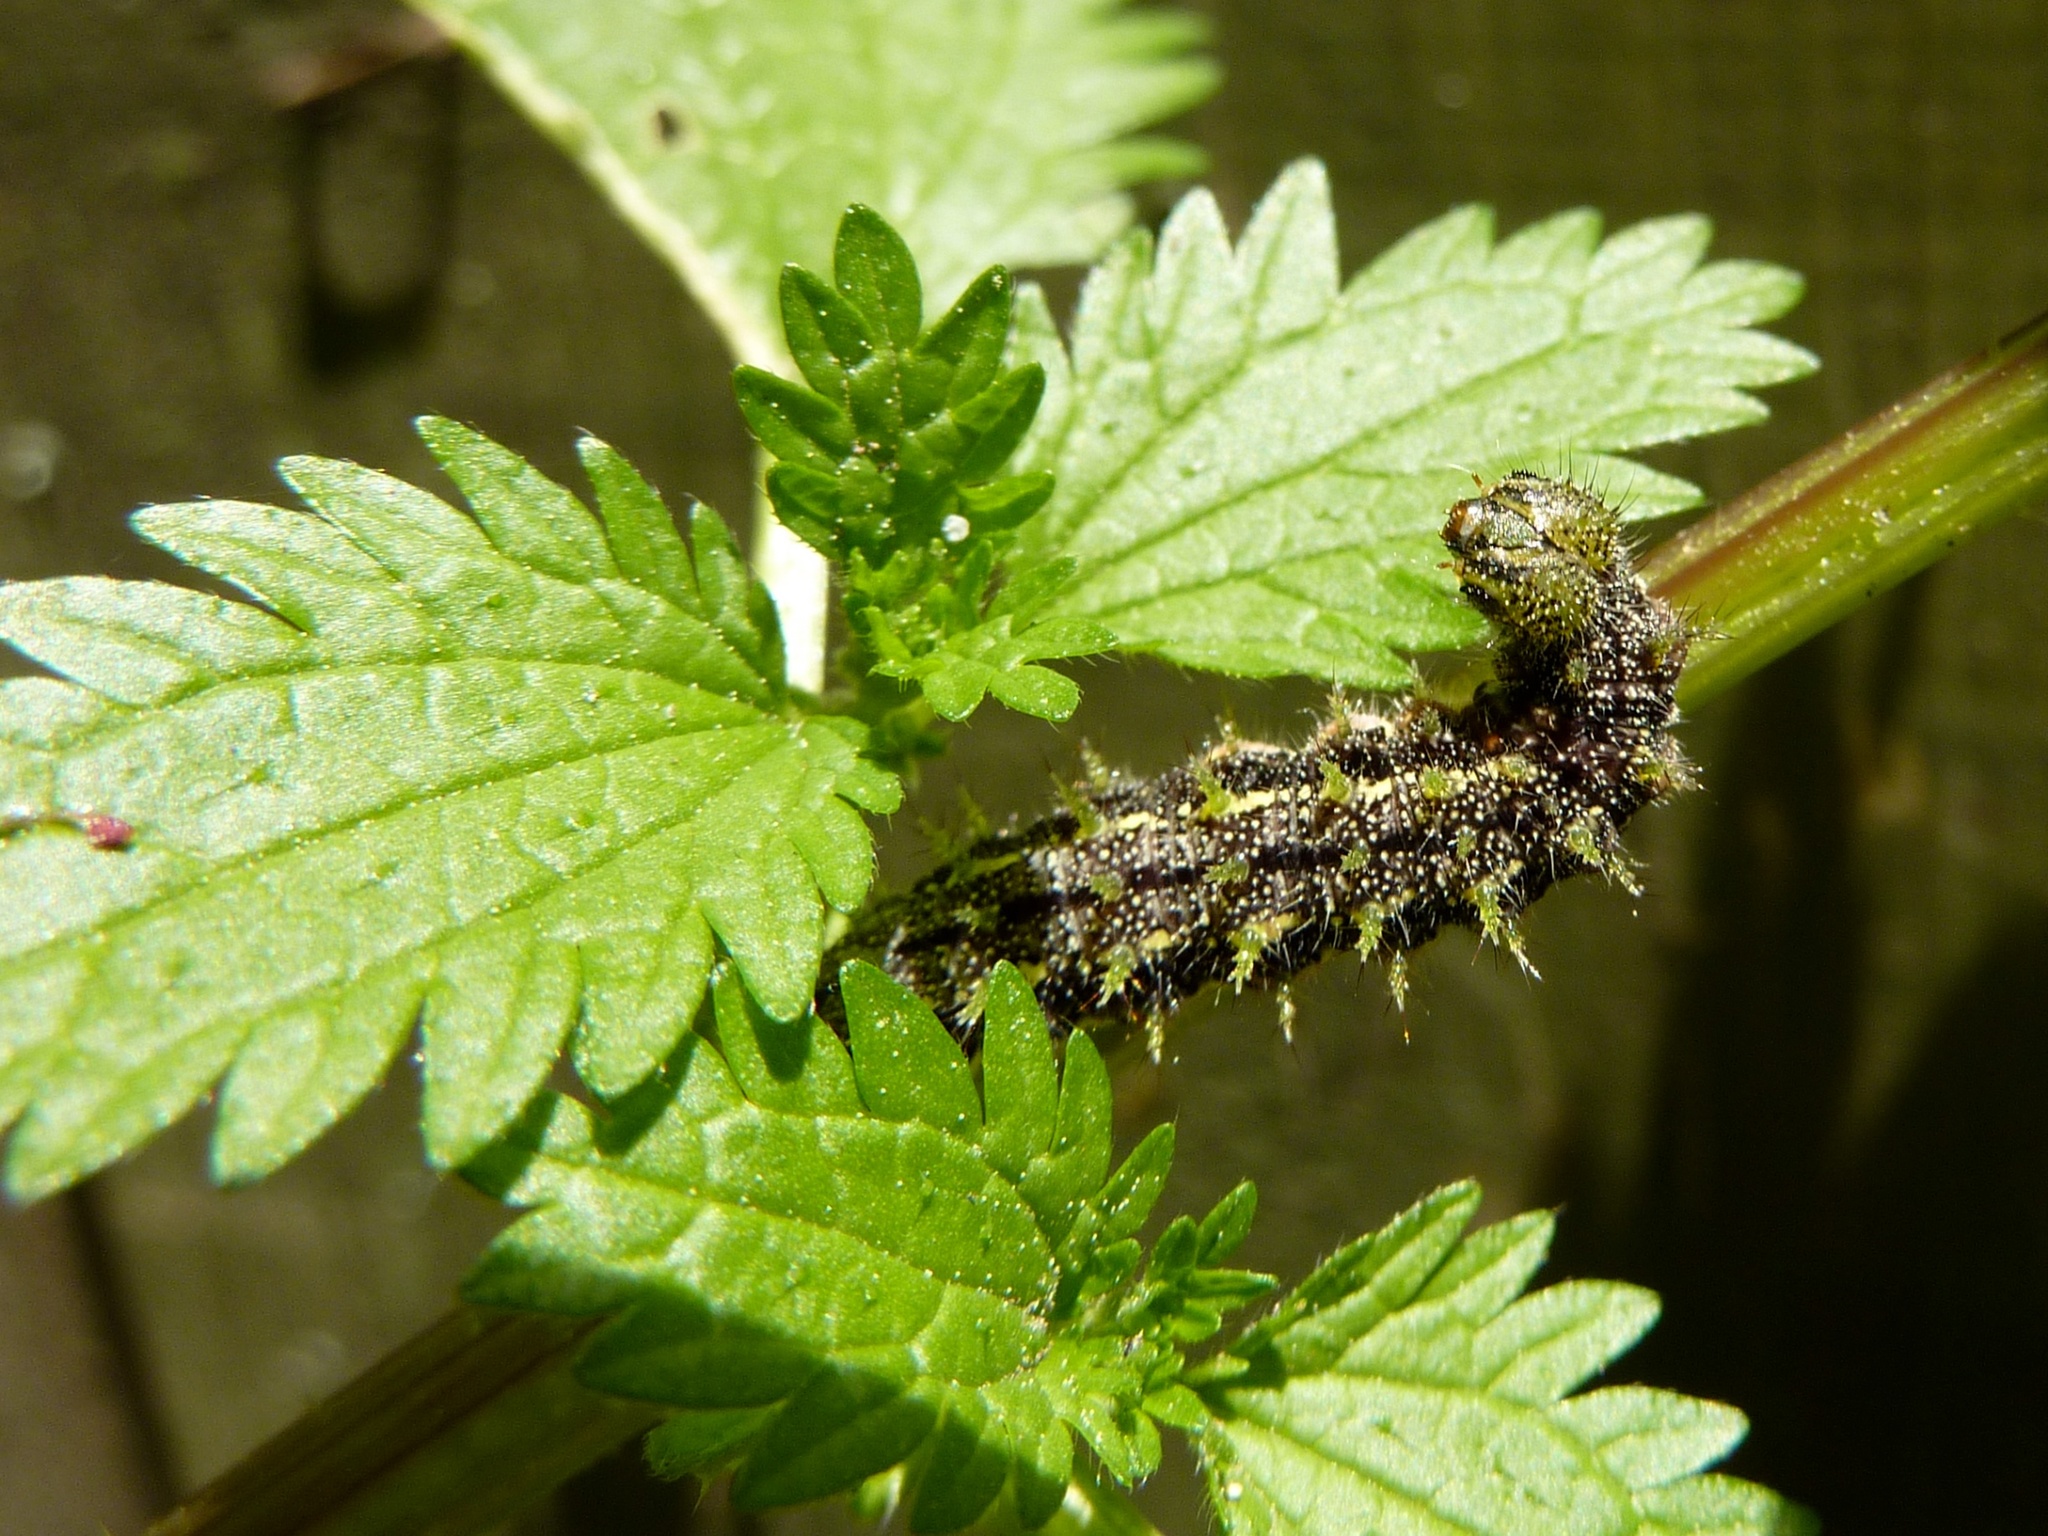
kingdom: Animalia
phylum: Arthropoda
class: Insecta
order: Lepidoptera
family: Nymphalidae
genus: Vanessa
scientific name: Vanessa itea
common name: Yellow admiral
